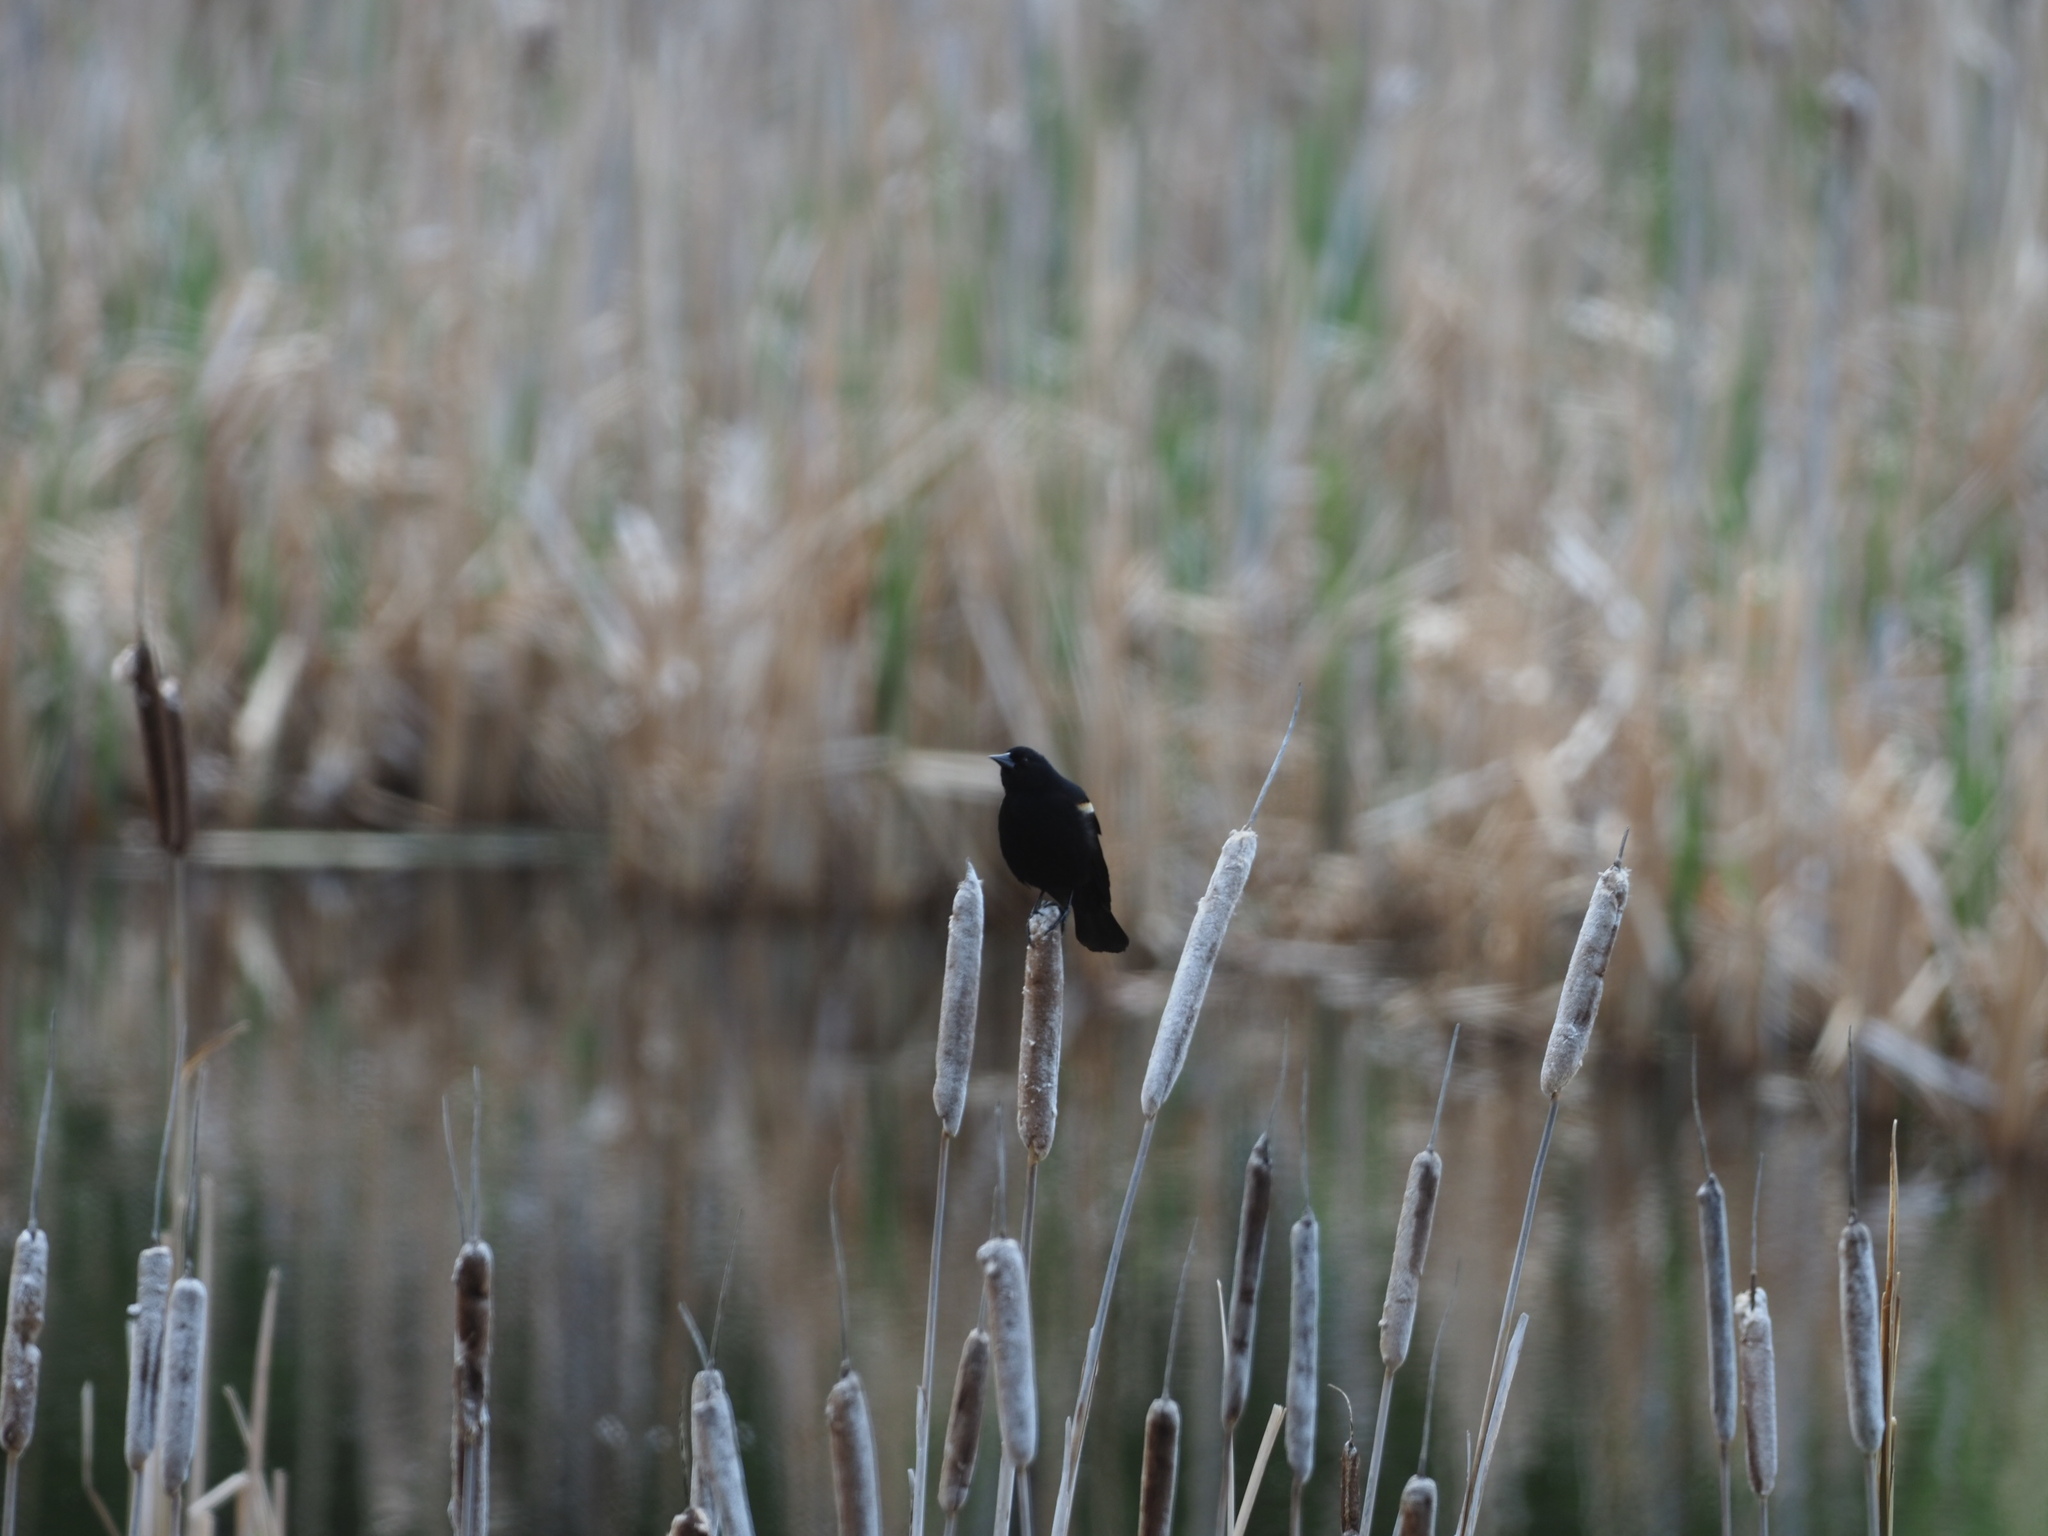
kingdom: Animalia
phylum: Chordata
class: Aves
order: Passeriformes
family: Icteridae
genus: Agelaius
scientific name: Agelaius phoeniceus
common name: Red-winged blackbird
